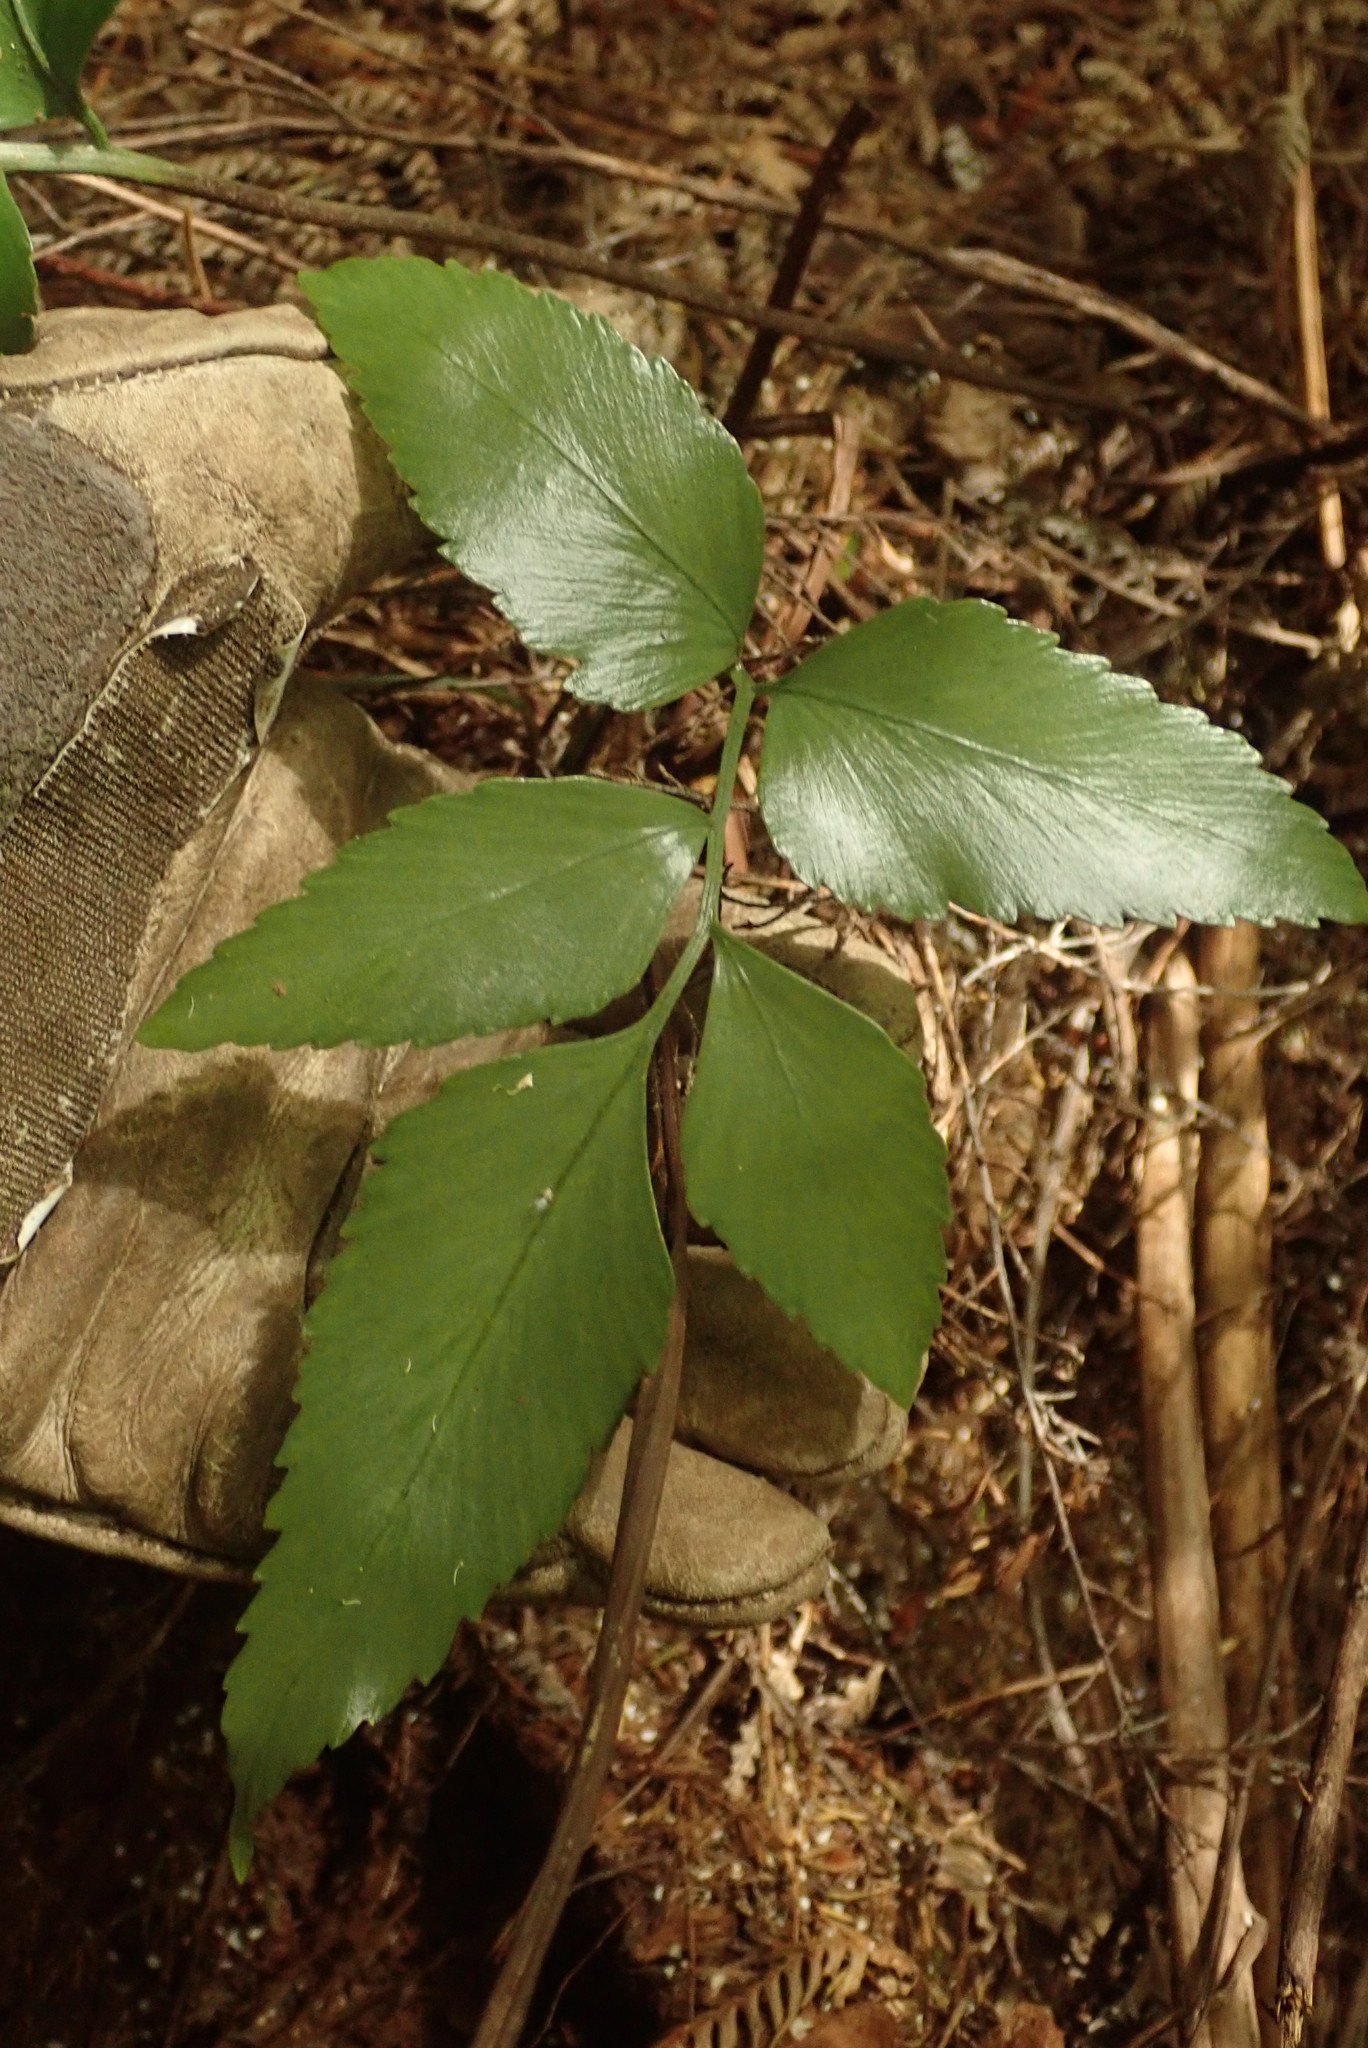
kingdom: Plantae
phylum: Tracheophyta
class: Polypodiopsida
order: Polypodiales
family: Aspleniaceae
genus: Asplenium
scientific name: Asplenium oblongifolium
